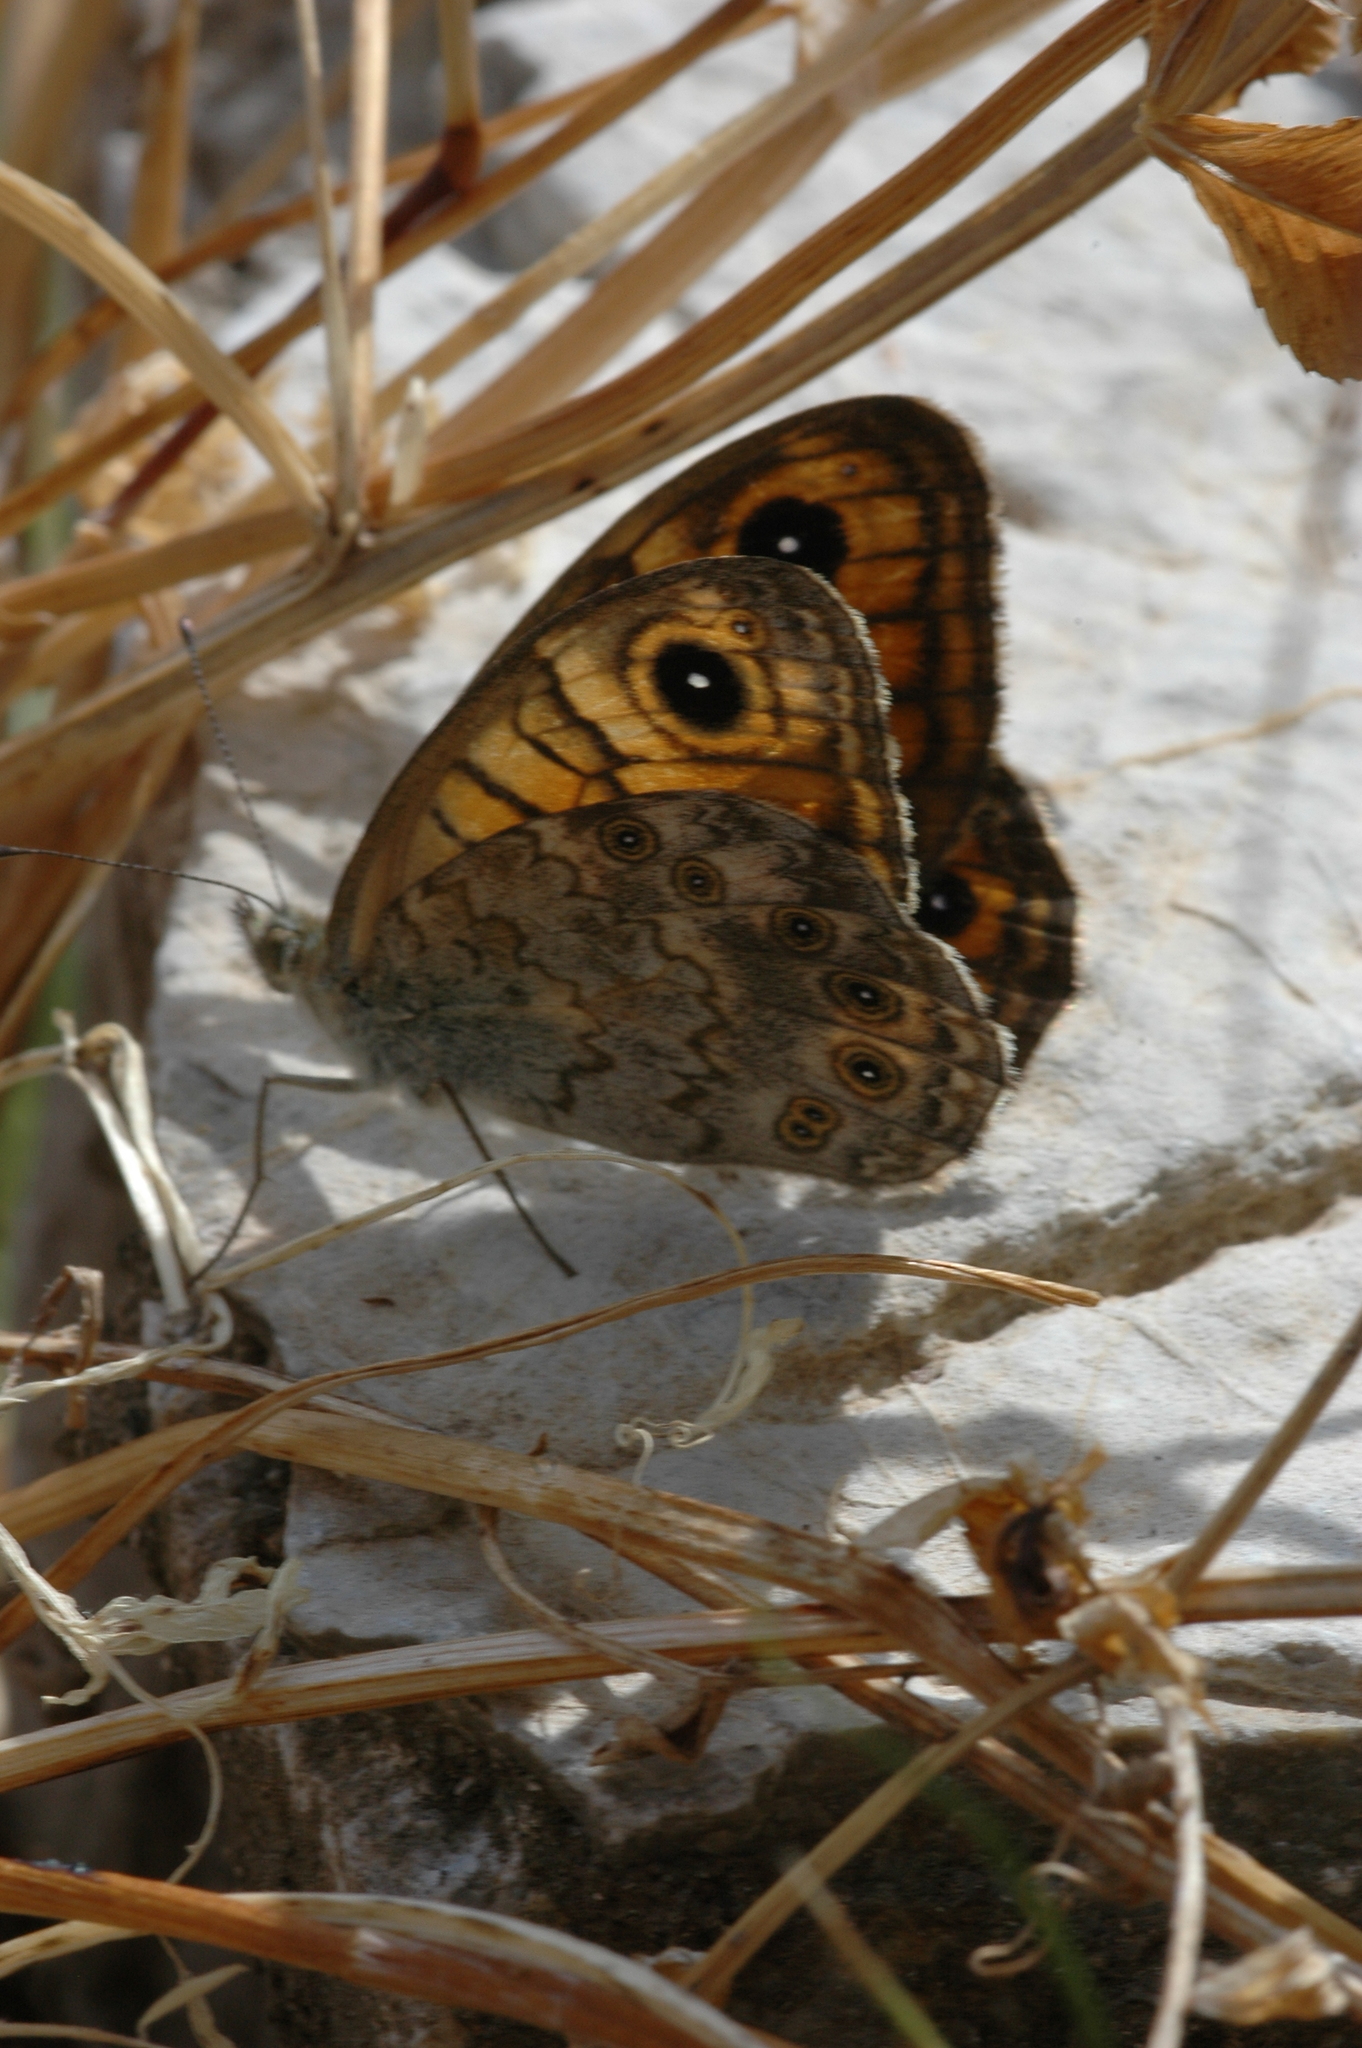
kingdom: Animalia
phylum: Arthropoda
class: Insecta
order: Lepidoptera
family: Nymphalidae
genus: Pararge
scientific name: Pararge Lasiommata megera
